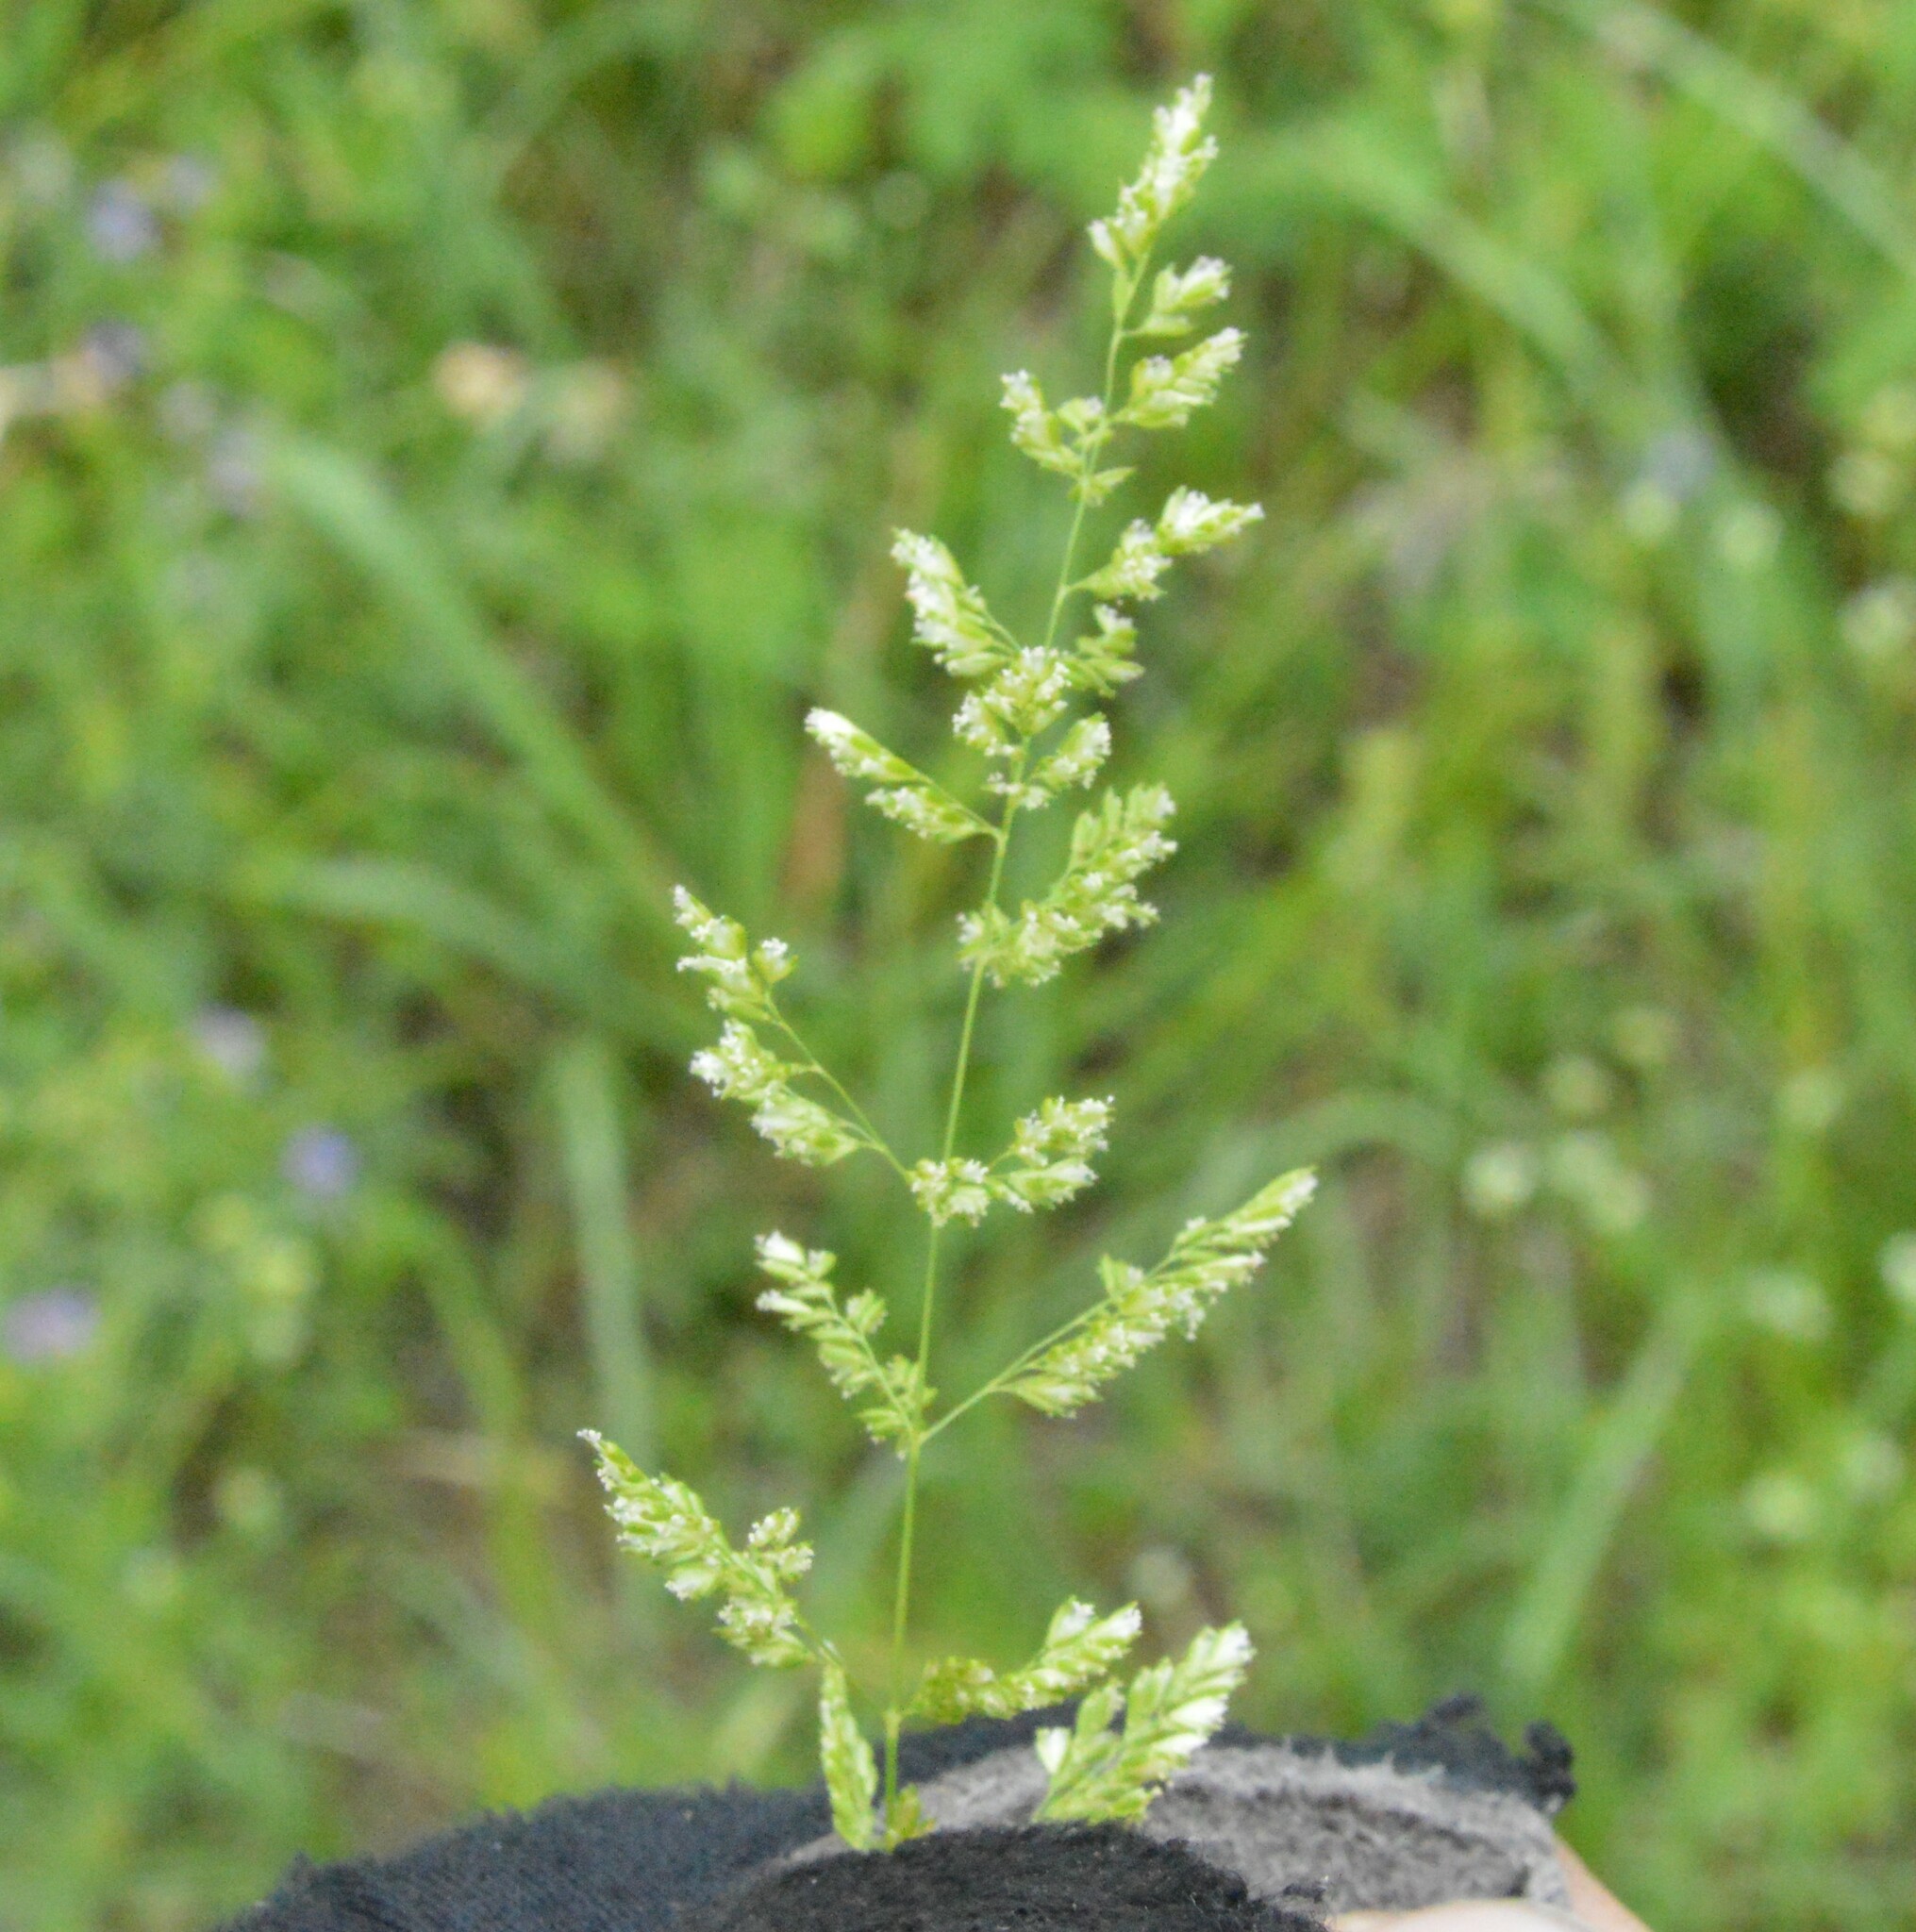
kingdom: Plantae
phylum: Tracheophyta
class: Liliopsida
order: Poales
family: Poaceae
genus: Sphenopholis
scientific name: Sphenopholis obtusata
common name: Prairie grass
